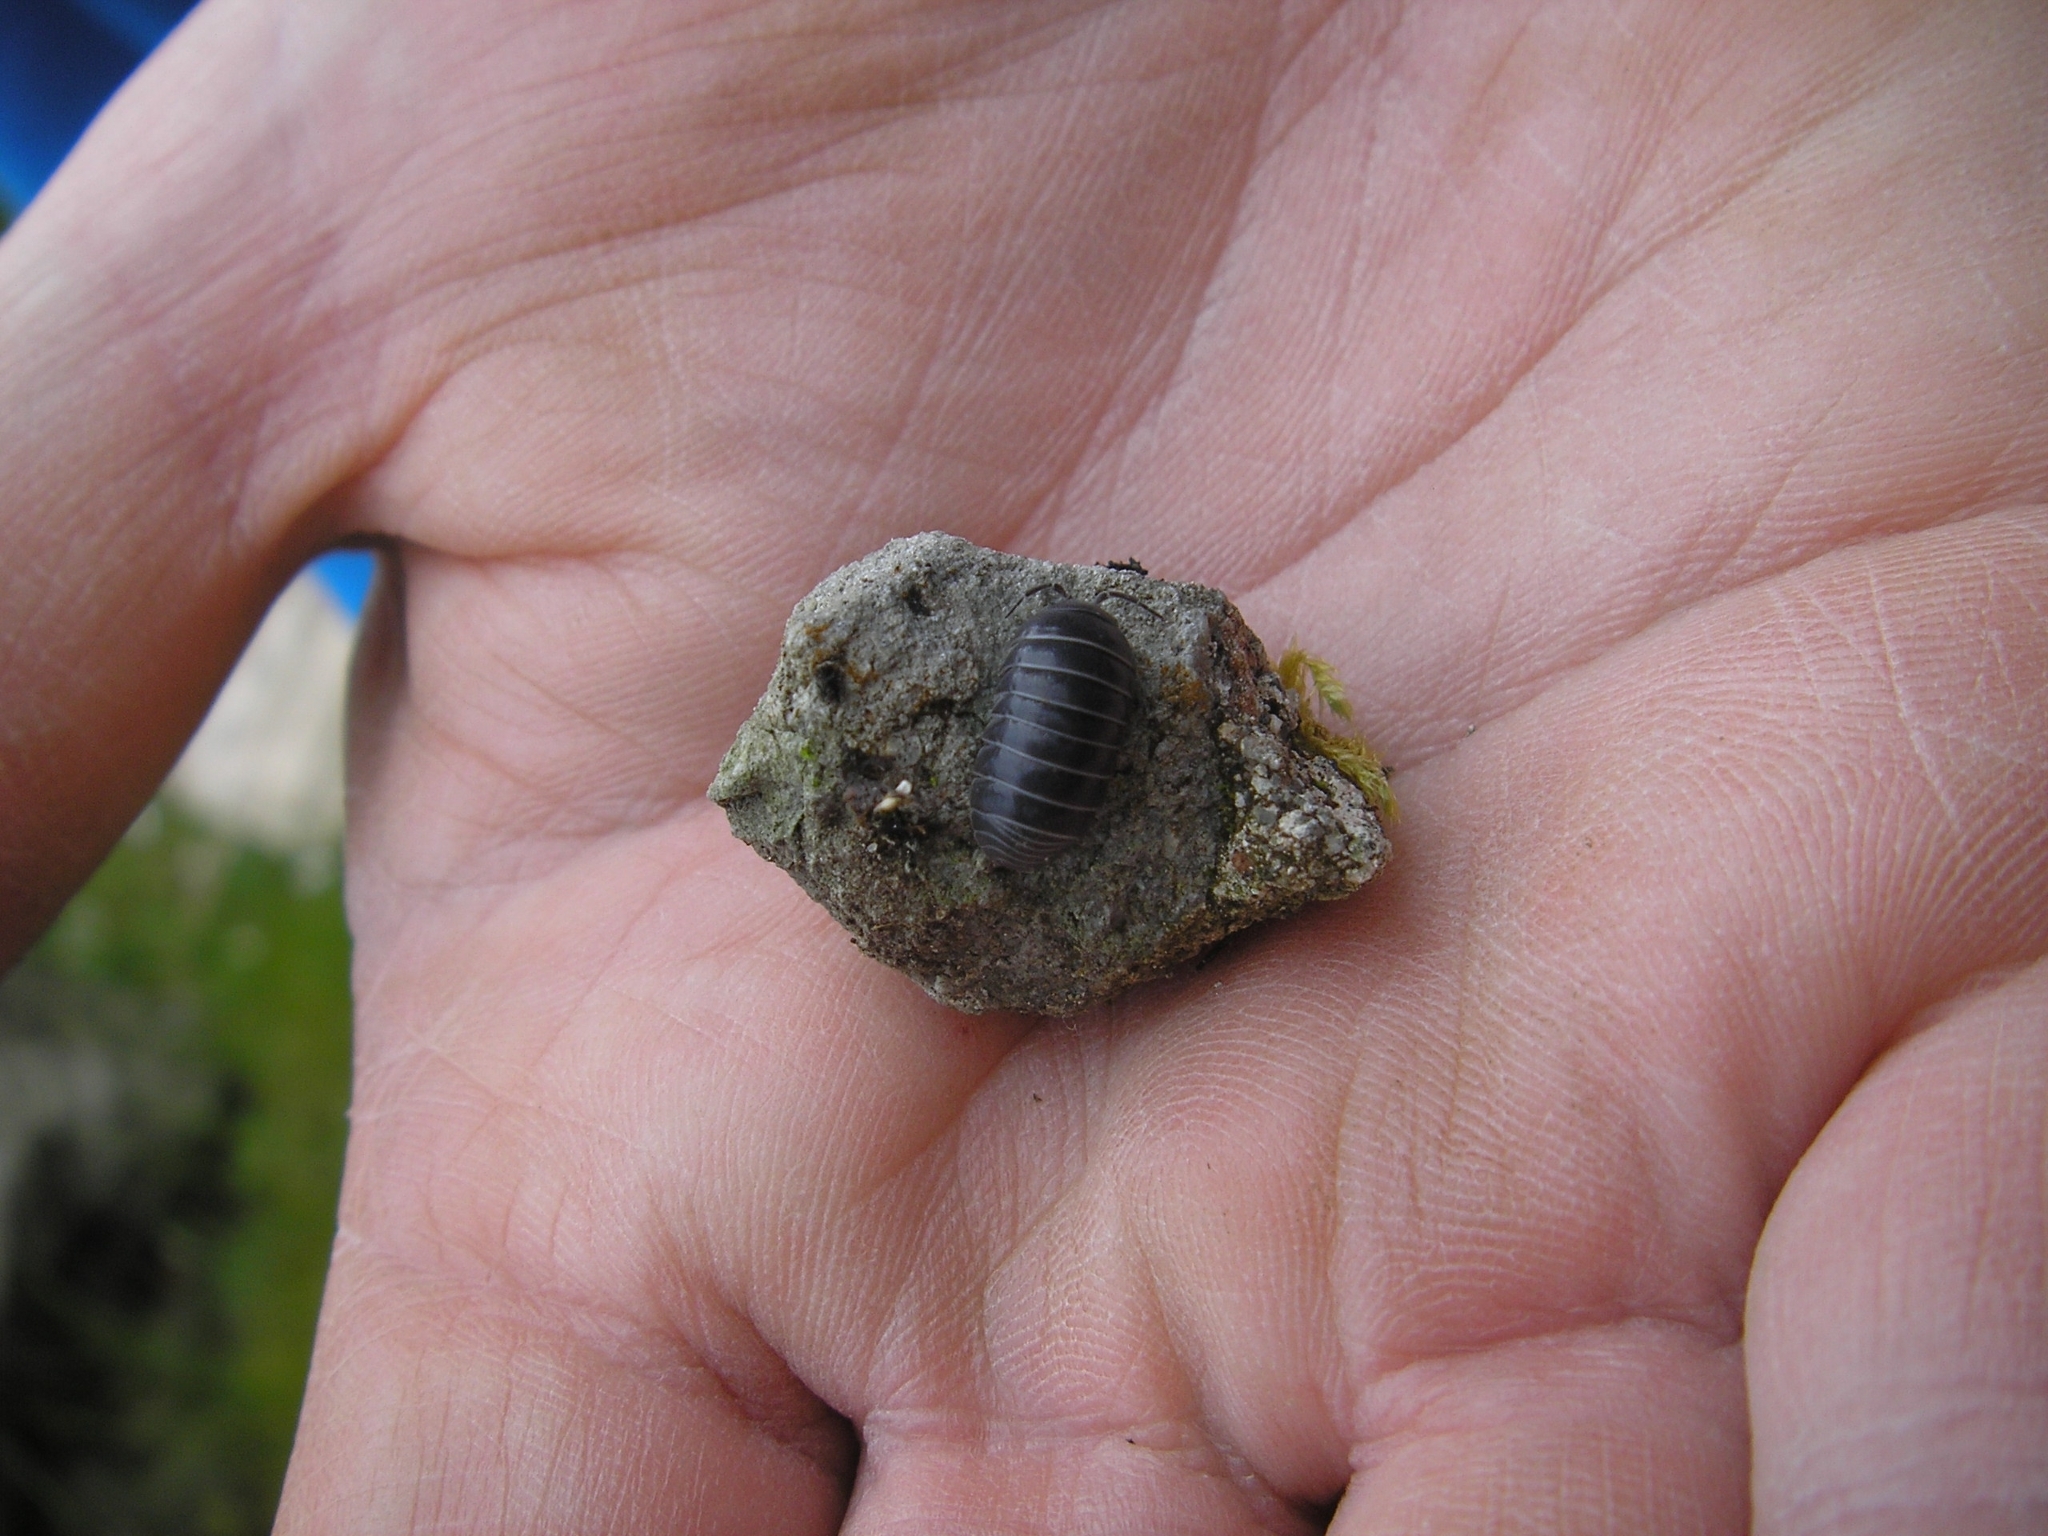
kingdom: Animalia
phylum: Arthropoda
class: Malacostraca
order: Isopoda
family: Armadillidiidae
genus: Armadillidium
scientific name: Armadillidium vulgare
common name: Common pill woodlouse
